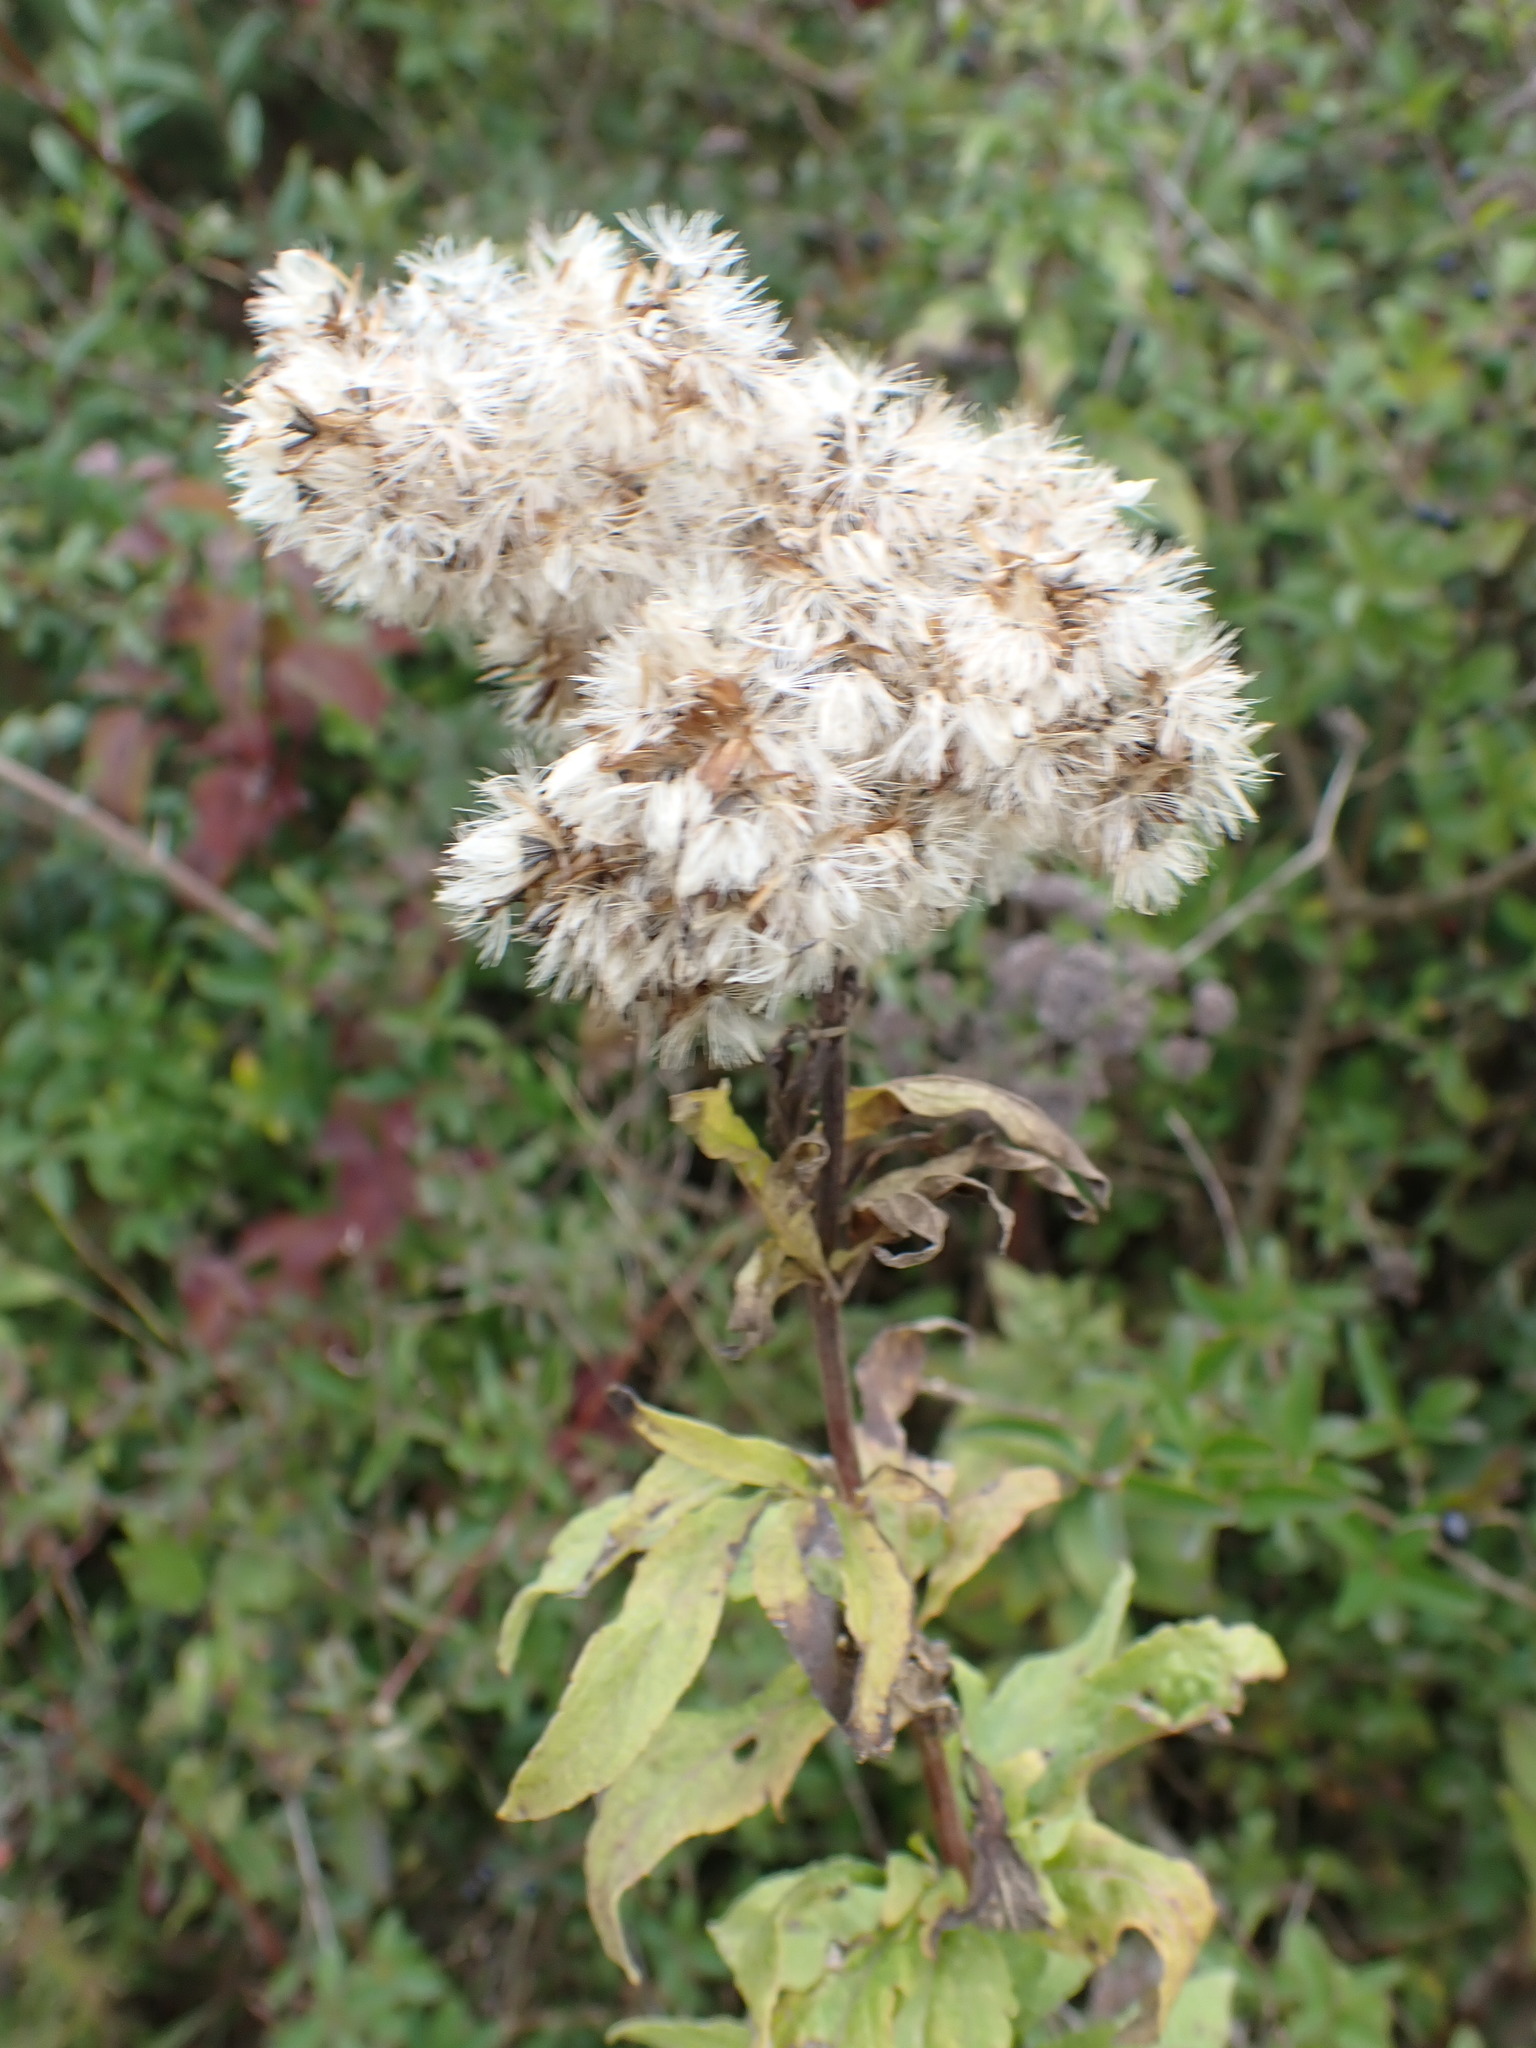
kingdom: Plantae
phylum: Tracheophyta
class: Magnoliopsida
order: Asterales
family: Asteraceae
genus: Eupatorium
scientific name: Eupatorium cannabinum
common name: Hemp-agrimony
